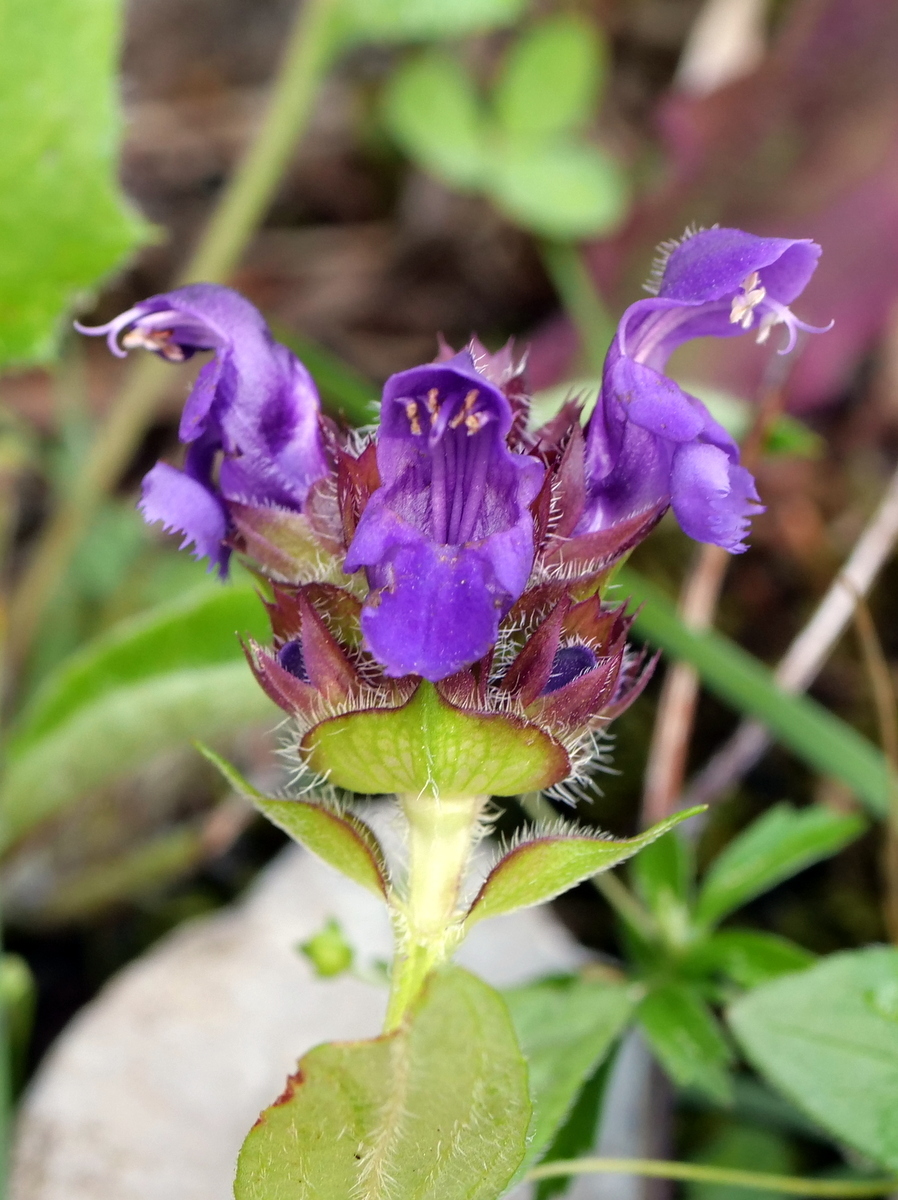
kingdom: Plantae
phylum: Tracheophyta
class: Magnoliopsida
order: Lamiales
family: Lamiaceae
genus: Prunella
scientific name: Prunella grandiflora
